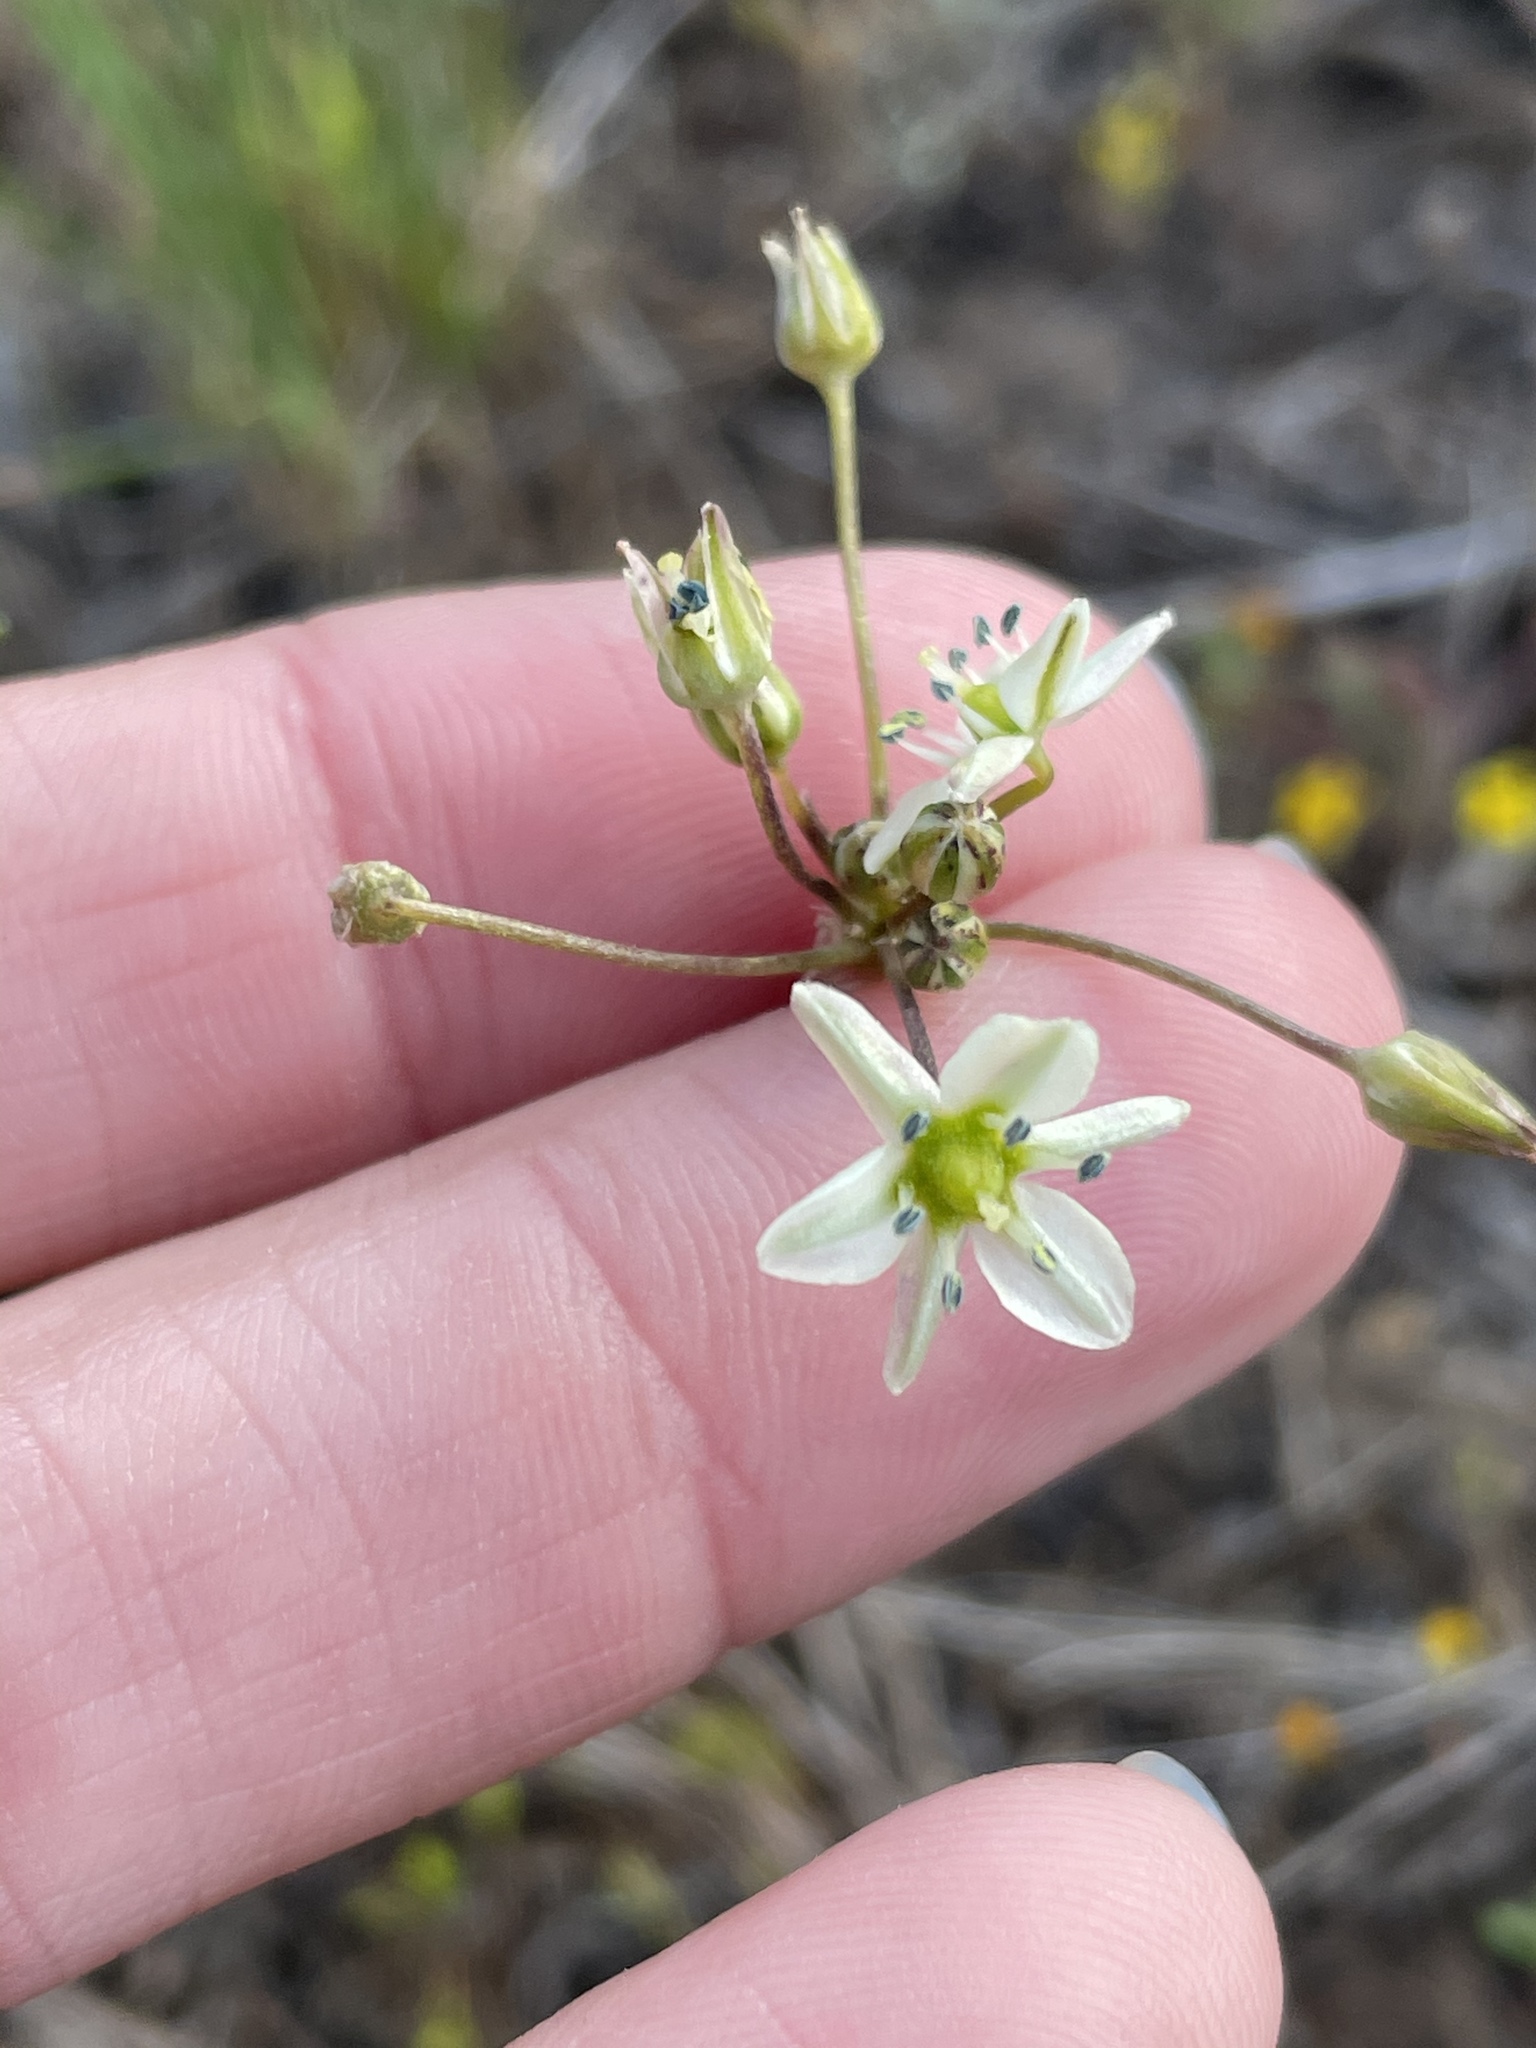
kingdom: Plantae
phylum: Tracheophyta
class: Liliopsida
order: Asparagales
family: Asparagaceae
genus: Muilla
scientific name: Muilla maritima
